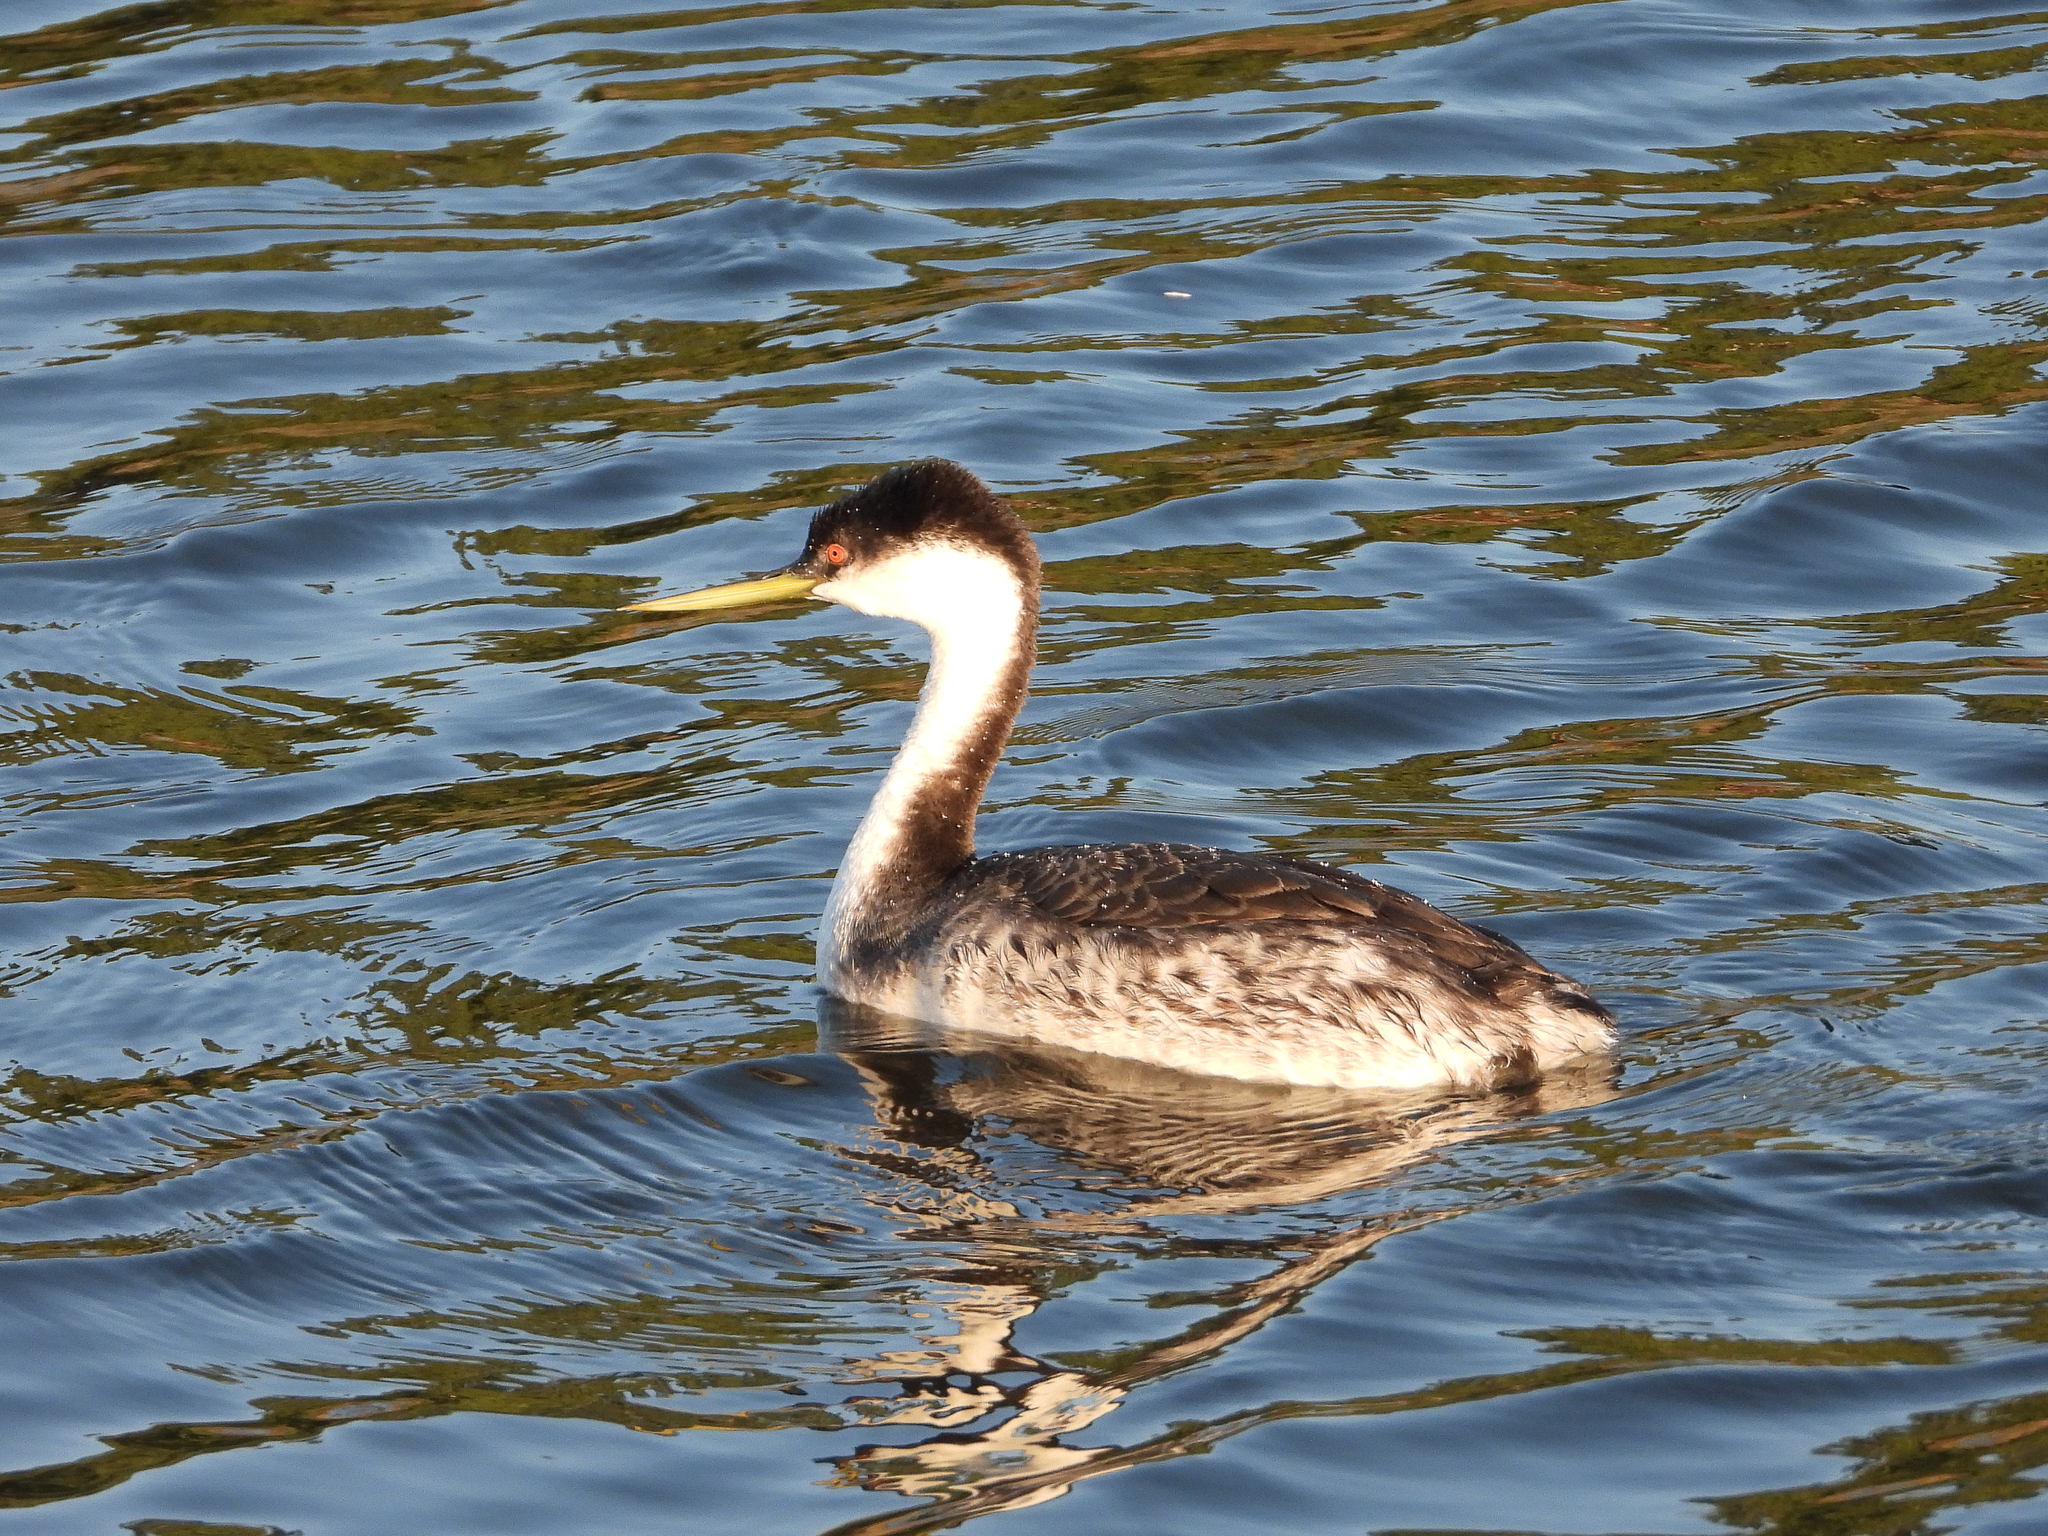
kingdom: Animalia
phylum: Chordata
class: Aves
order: Podicipediformes
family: Podicipedidae
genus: Aechmophorus
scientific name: Aechmophorus occidentalis
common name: Western grebe
